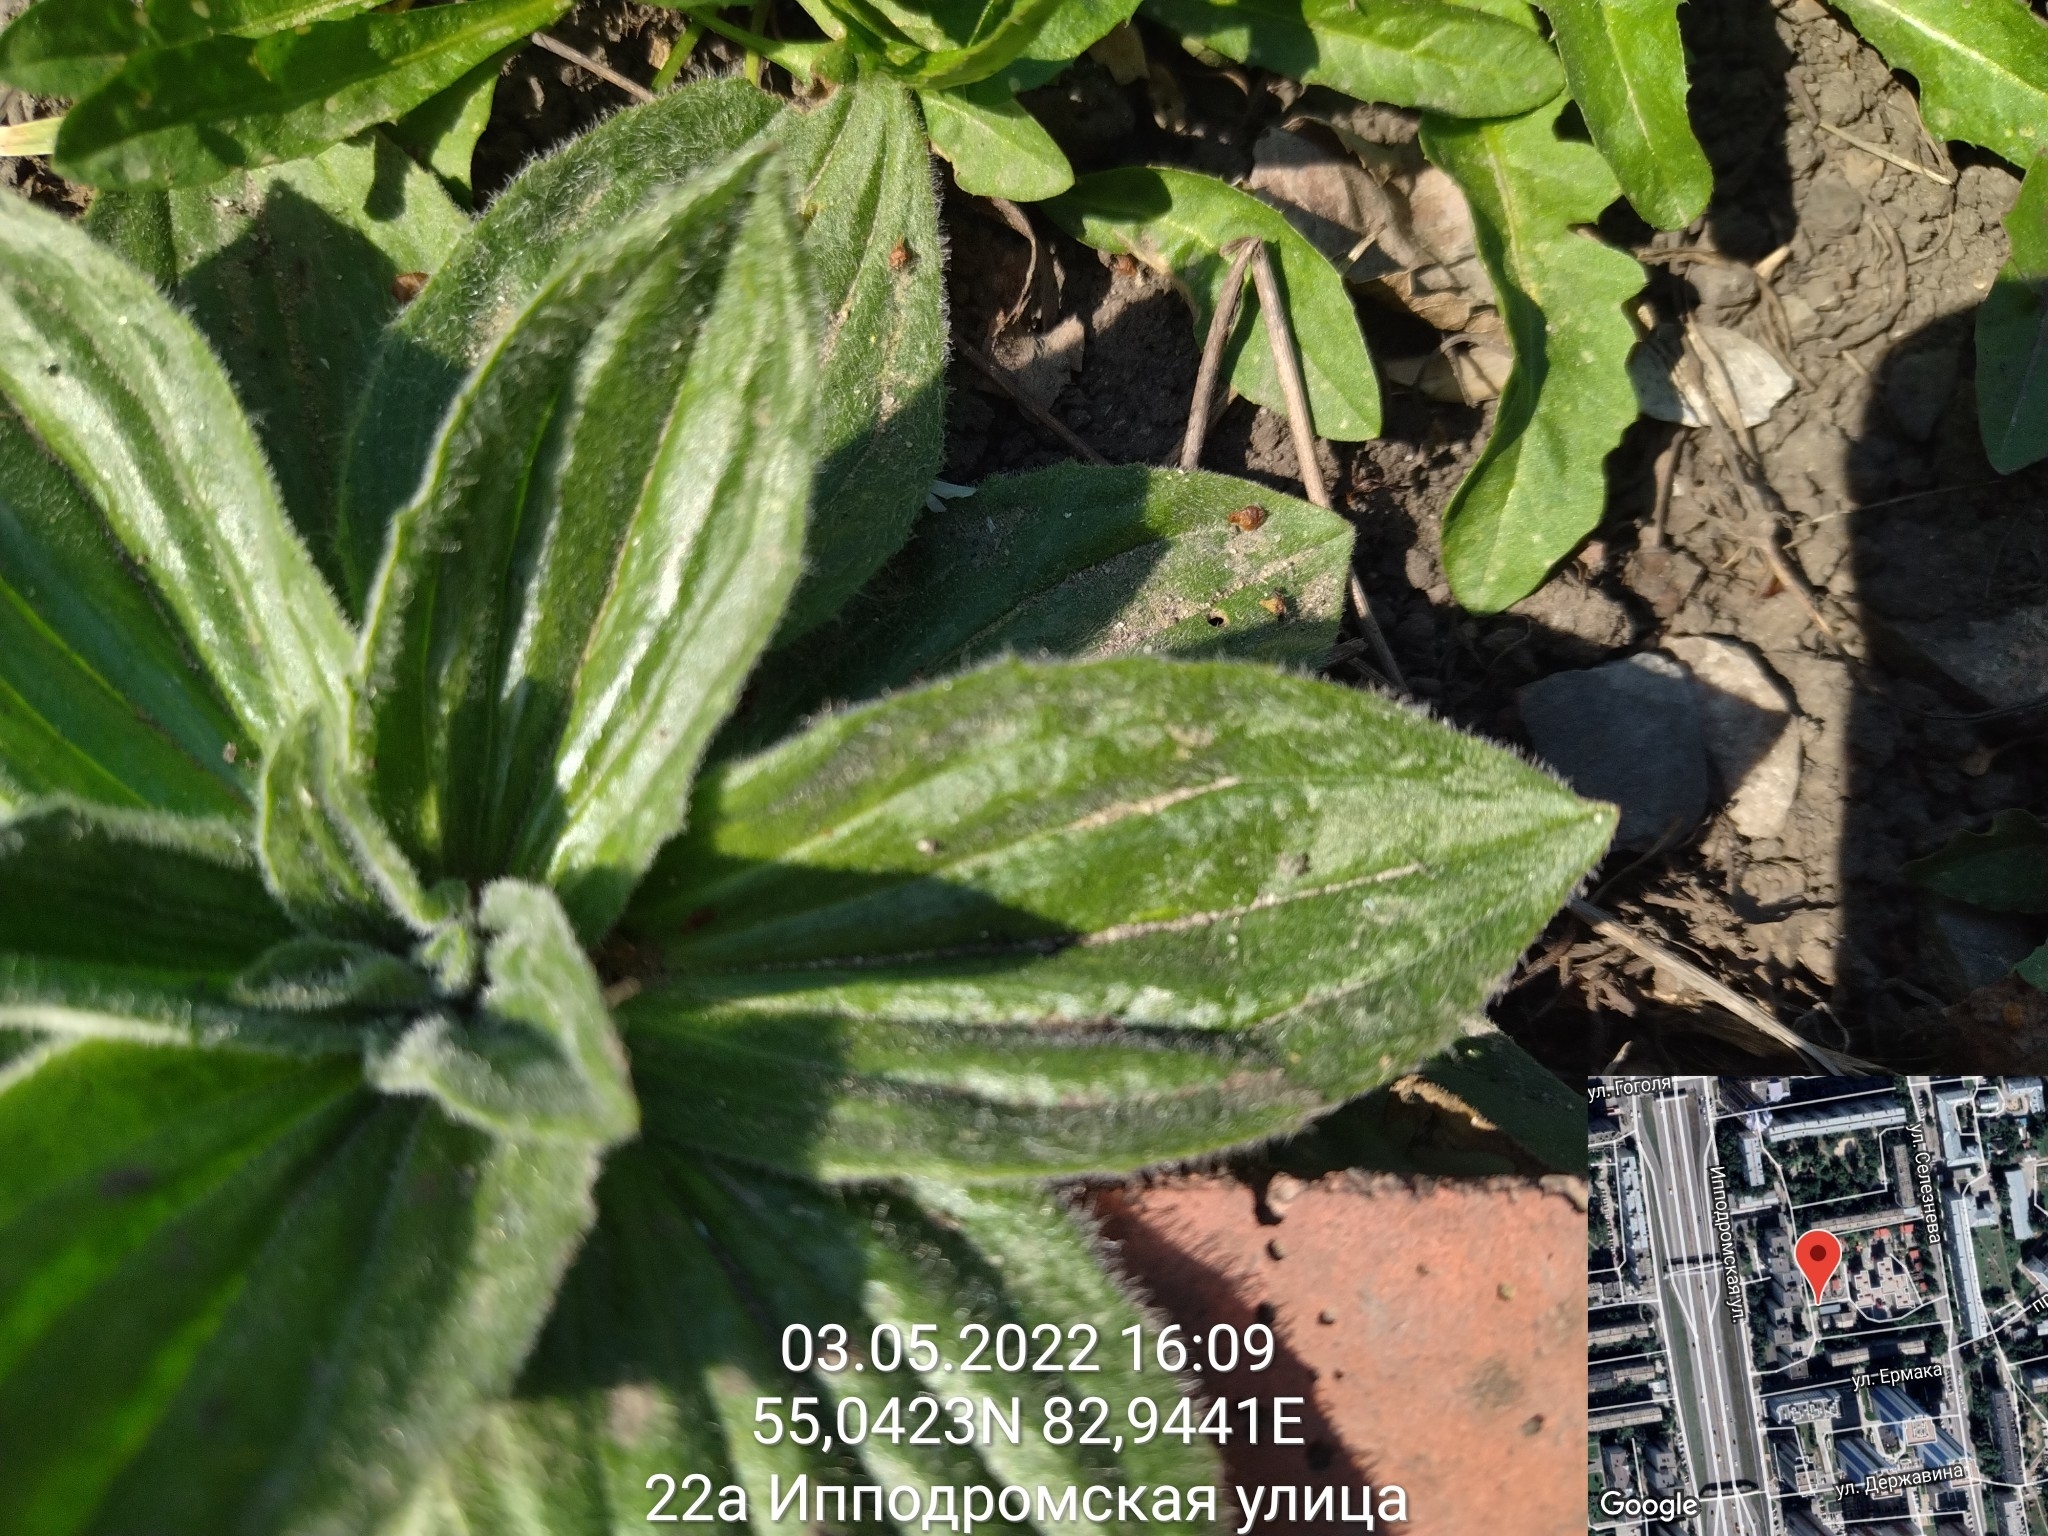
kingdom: Plantae
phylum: Tracheophyta
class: Magnoliopsida
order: Lamiales
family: Plantaginaceae
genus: Plantago
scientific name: Plantago media
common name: Hoary plantain
